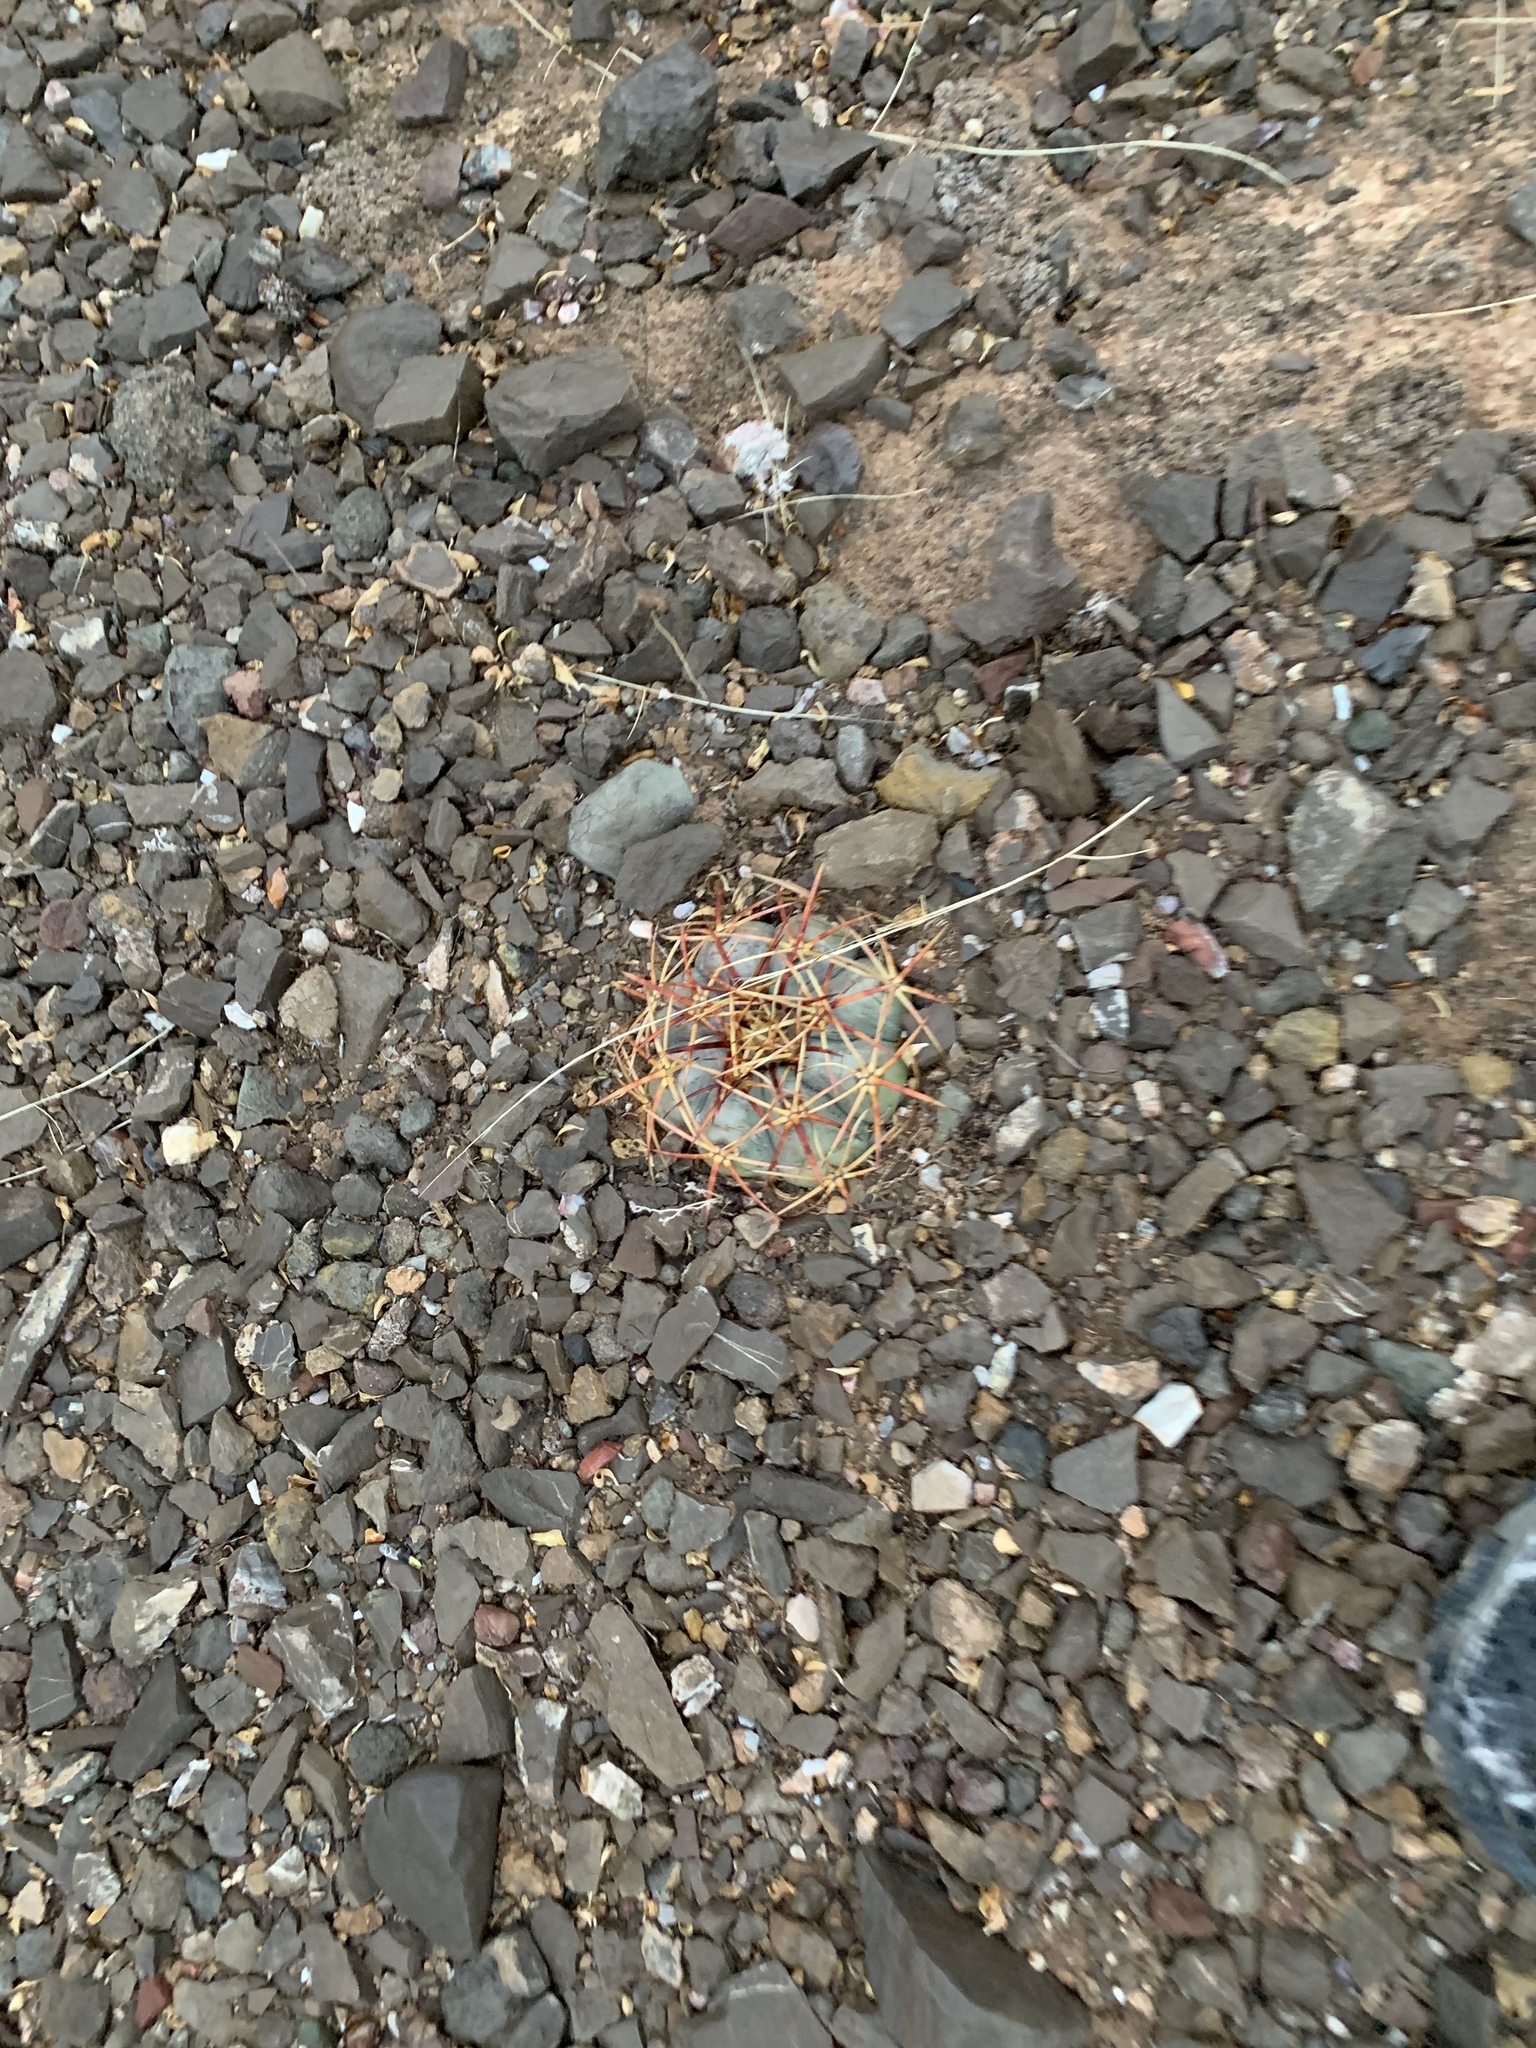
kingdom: Plantae
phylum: Tracheophyta
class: Magnoliopsida
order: Caryophyllales
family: Cactaceae
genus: Echinocactus
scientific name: Echinocactus horizonthalonius
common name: Devilshead
